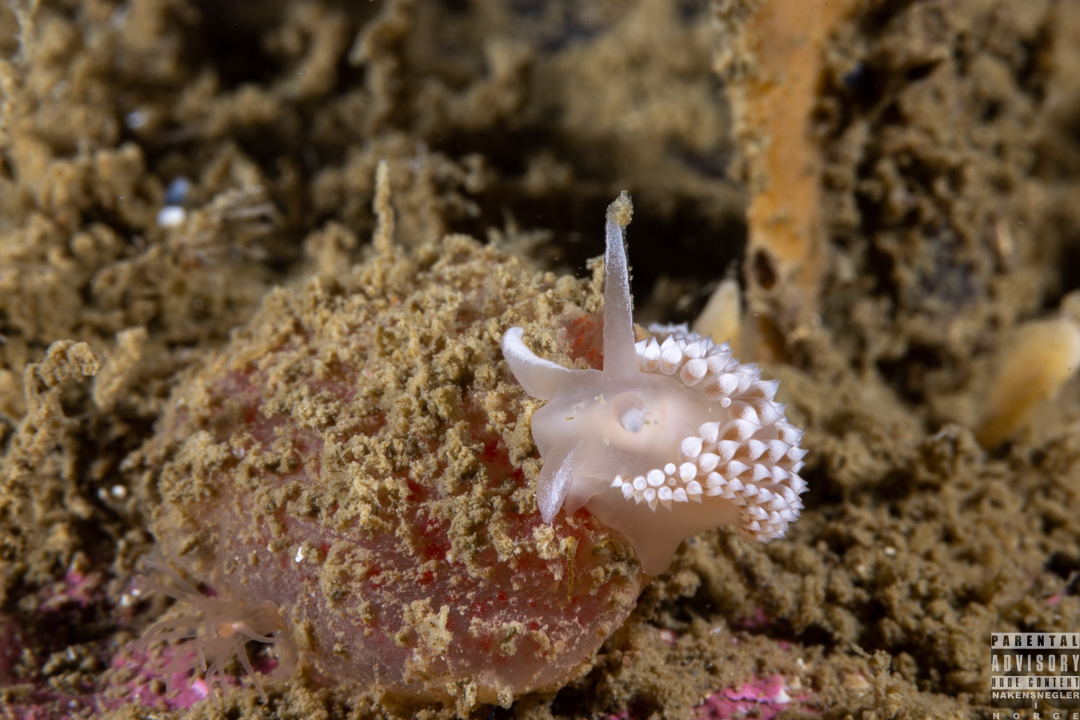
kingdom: Animalia
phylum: Mollusca
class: Gastropoda
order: Nudibranchia
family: Coryphellidae
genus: Coryphella
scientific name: Coryphella verrucosa
